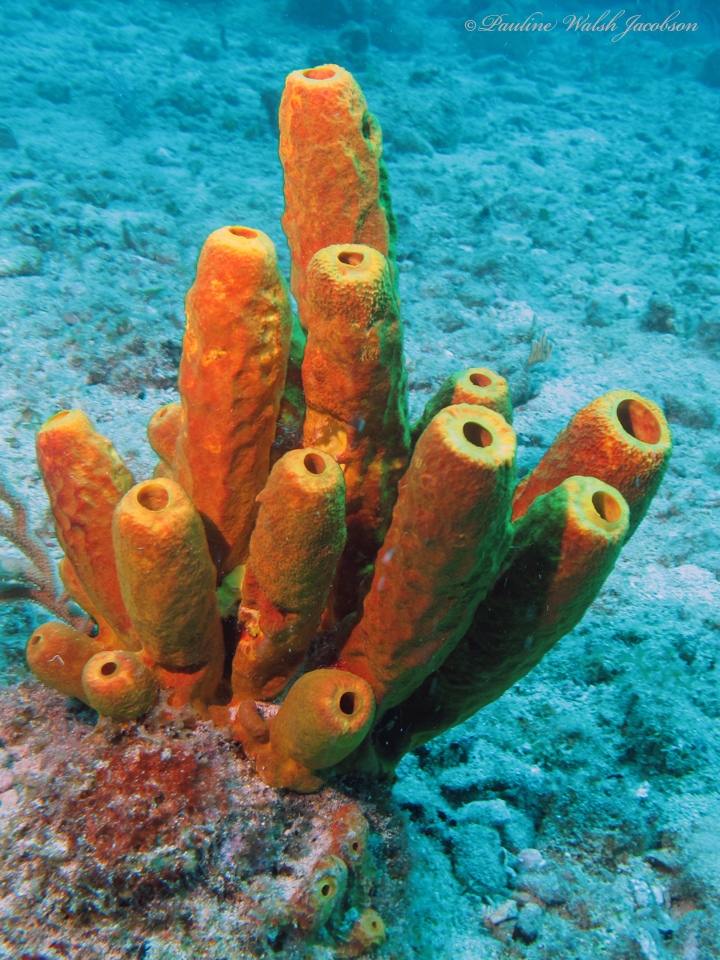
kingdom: Animalia
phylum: Porifera
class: Demospongiae
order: Verongiida
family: Aplysinidae
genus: Aplysina
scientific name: Aplysina fistularis
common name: Candle sponge
